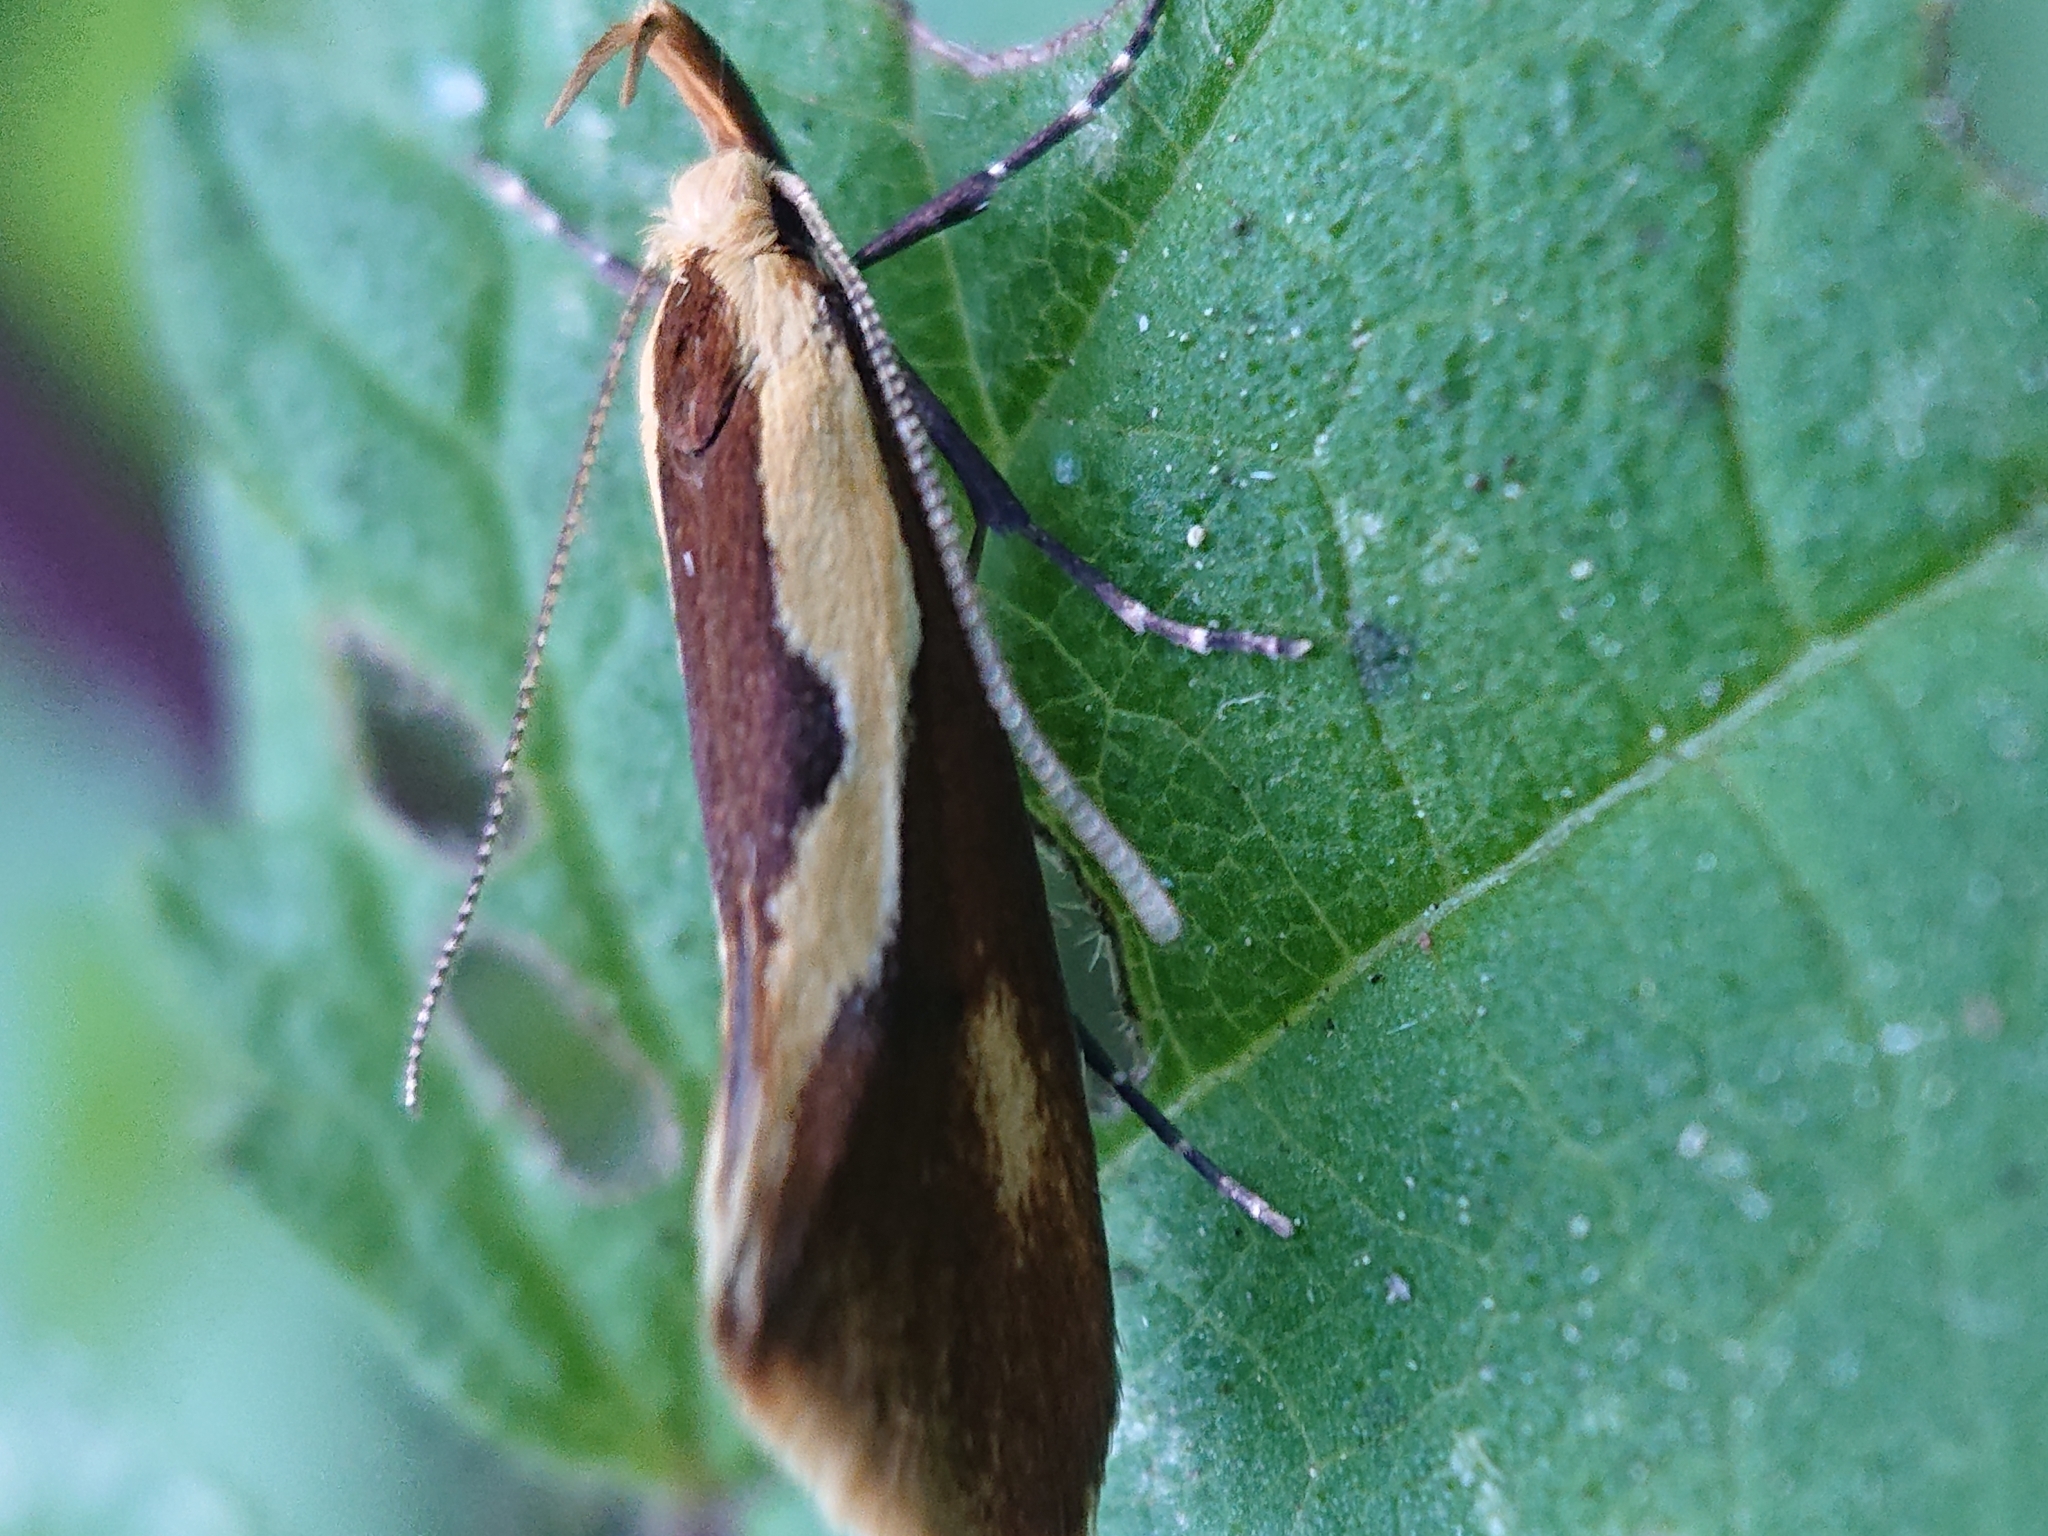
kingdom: Animalia
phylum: Arthropoda
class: Insecta
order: Lepidoptera
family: Oecophoridae
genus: Harpella
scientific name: Harpella forficella
